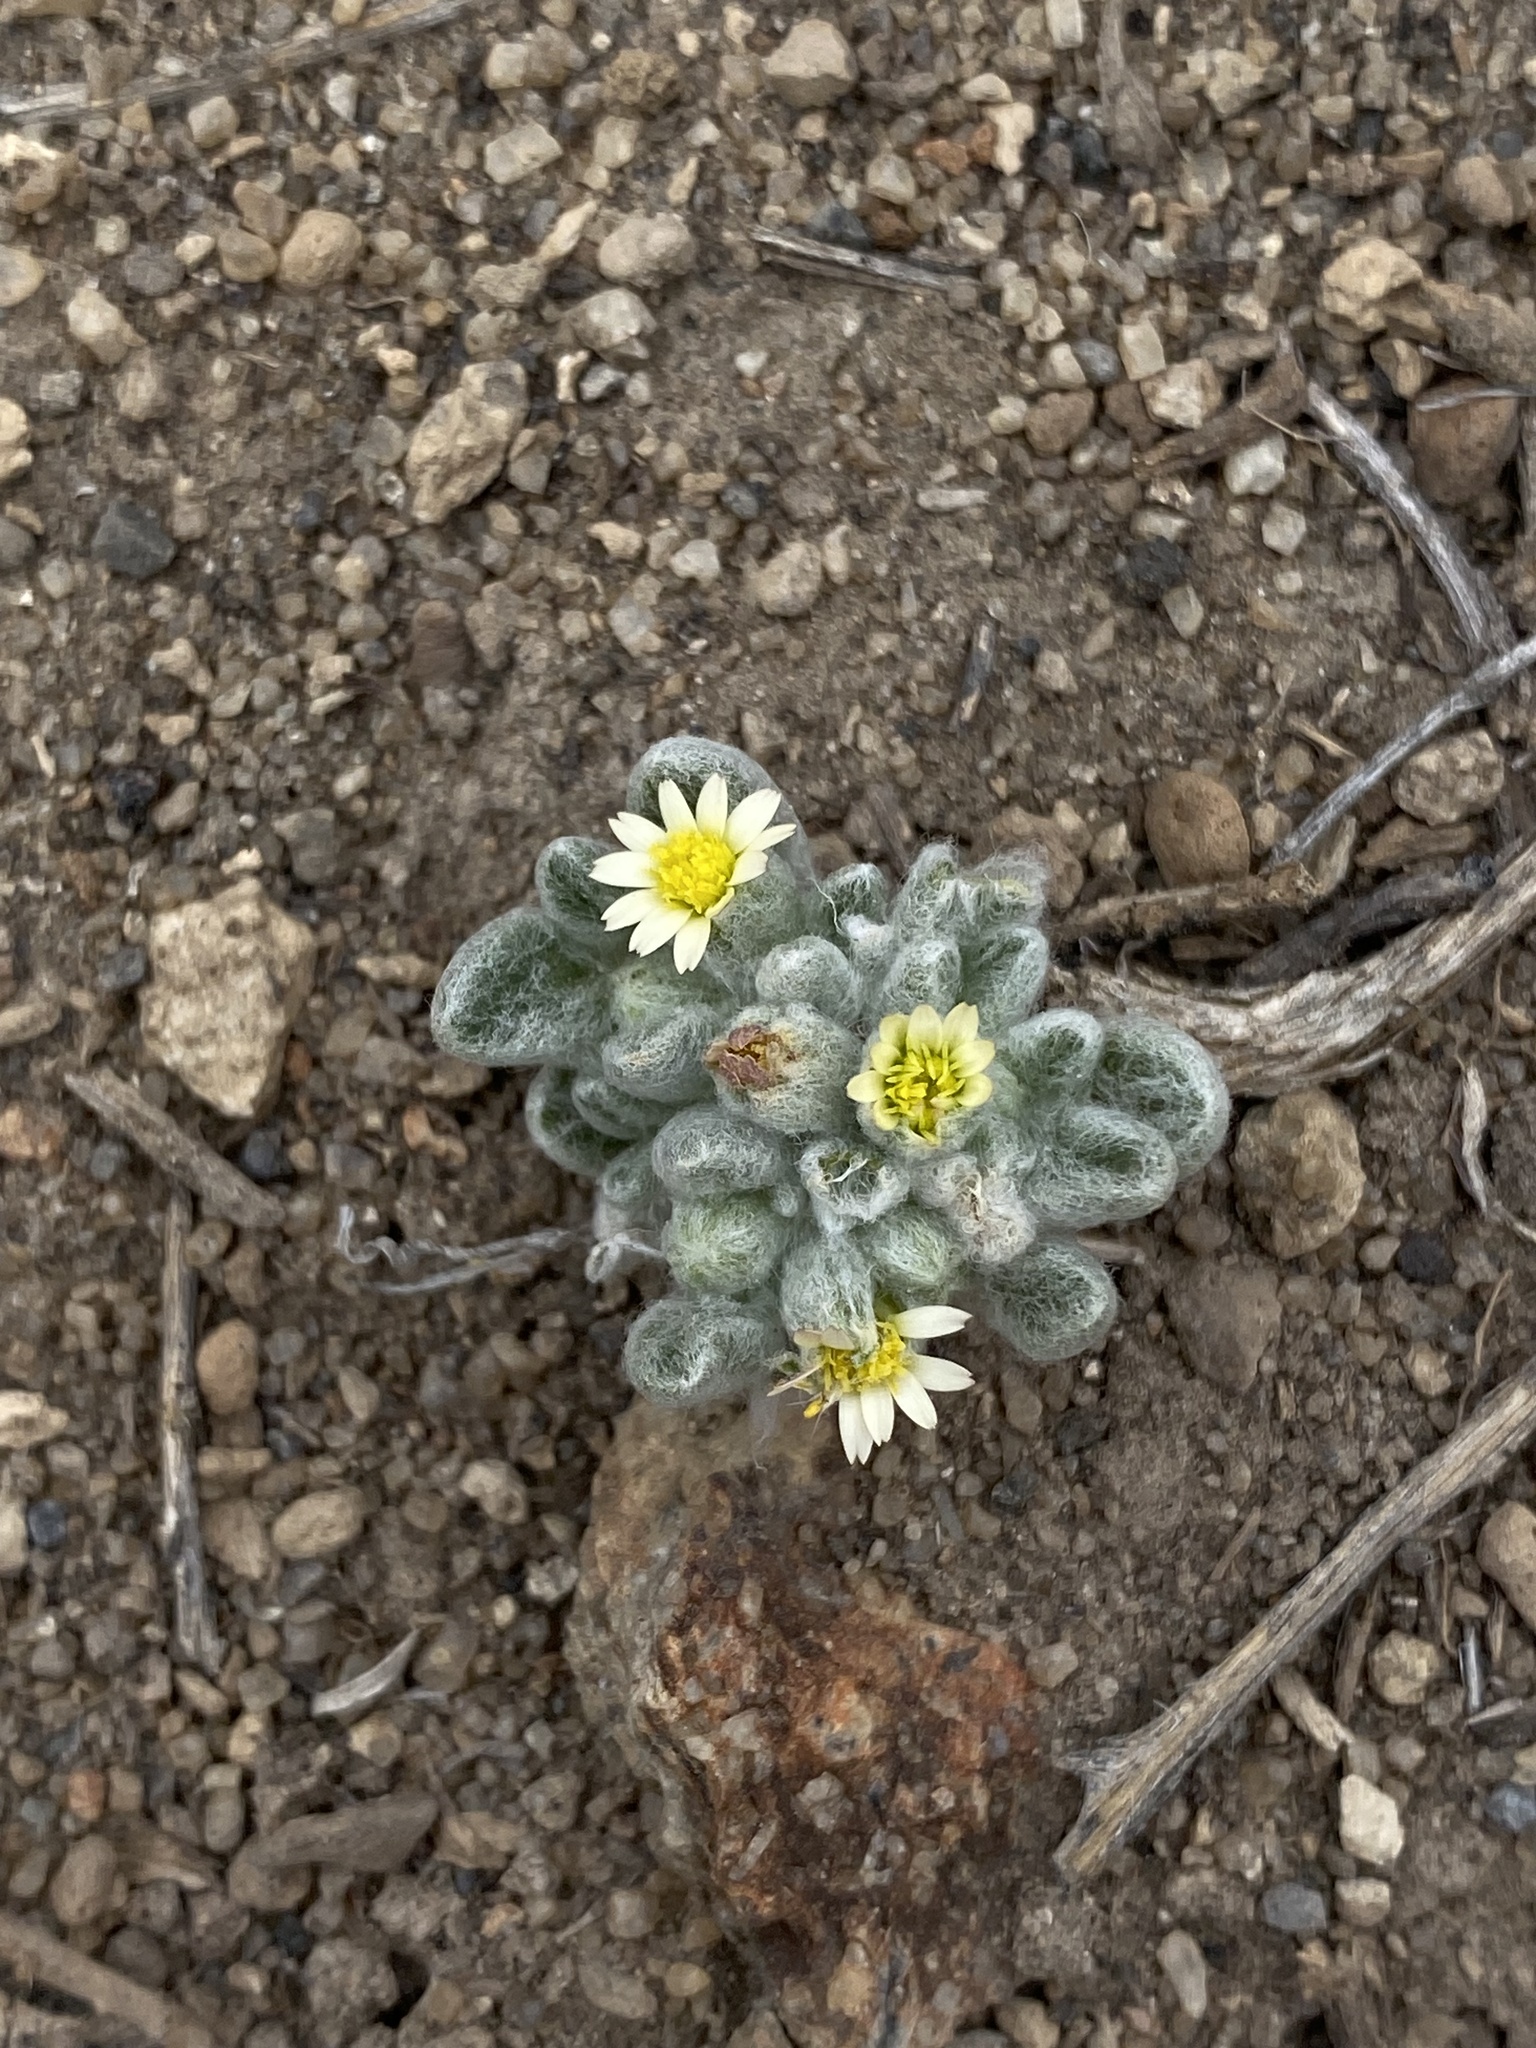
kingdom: Plantae
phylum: Tracheophyta
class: Magnoliopsida
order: Asterales
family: Asteraceae
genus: Eatonella
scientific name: Eatonella nivea
